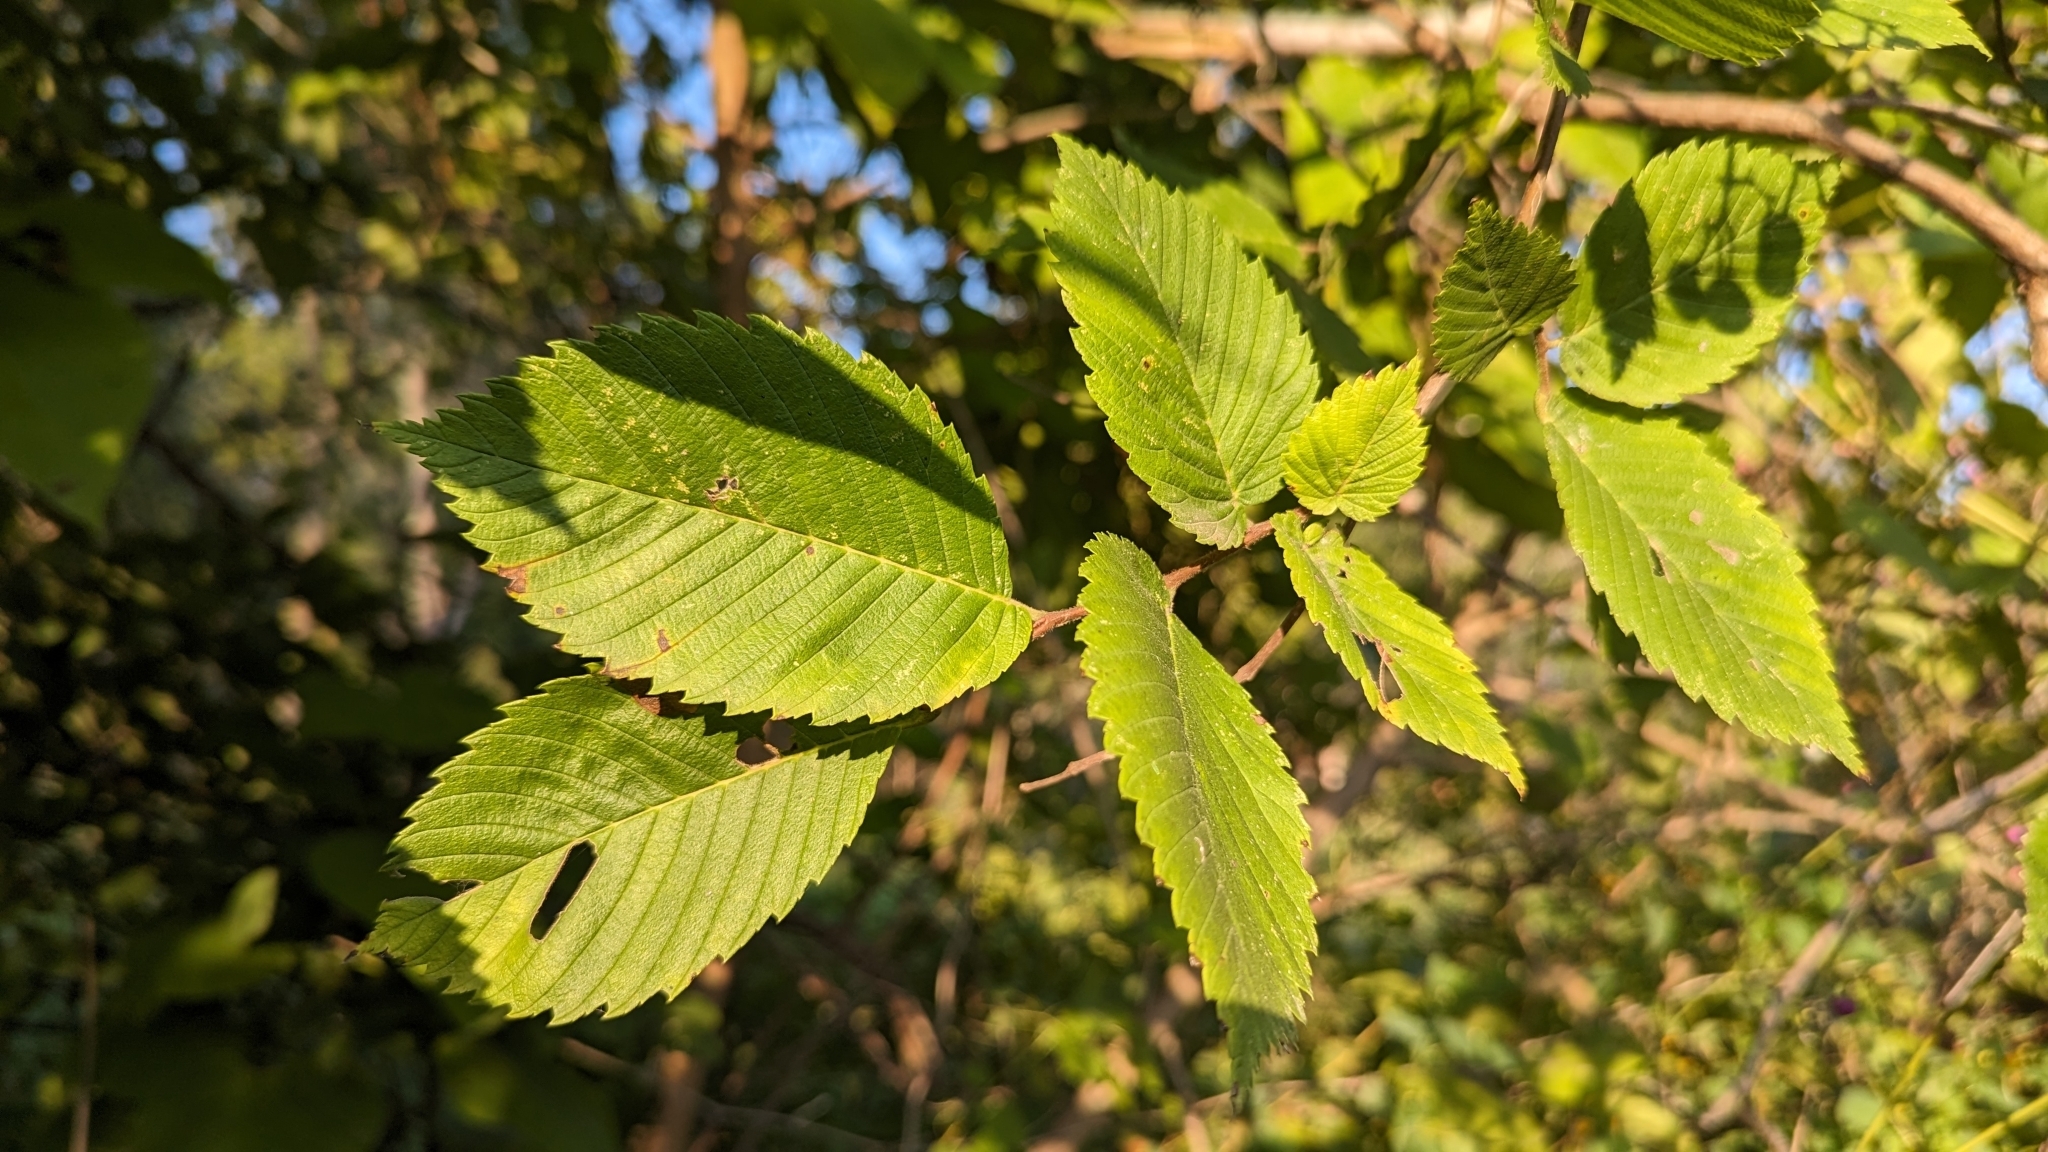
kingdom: Plantae
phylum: Tracheophyta
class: Magnoliopsida
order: Vitales
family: Vitaceae
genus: Ampelopsis
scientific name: Ampelopsis cordata
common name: Heart-leaf ampelopsis
